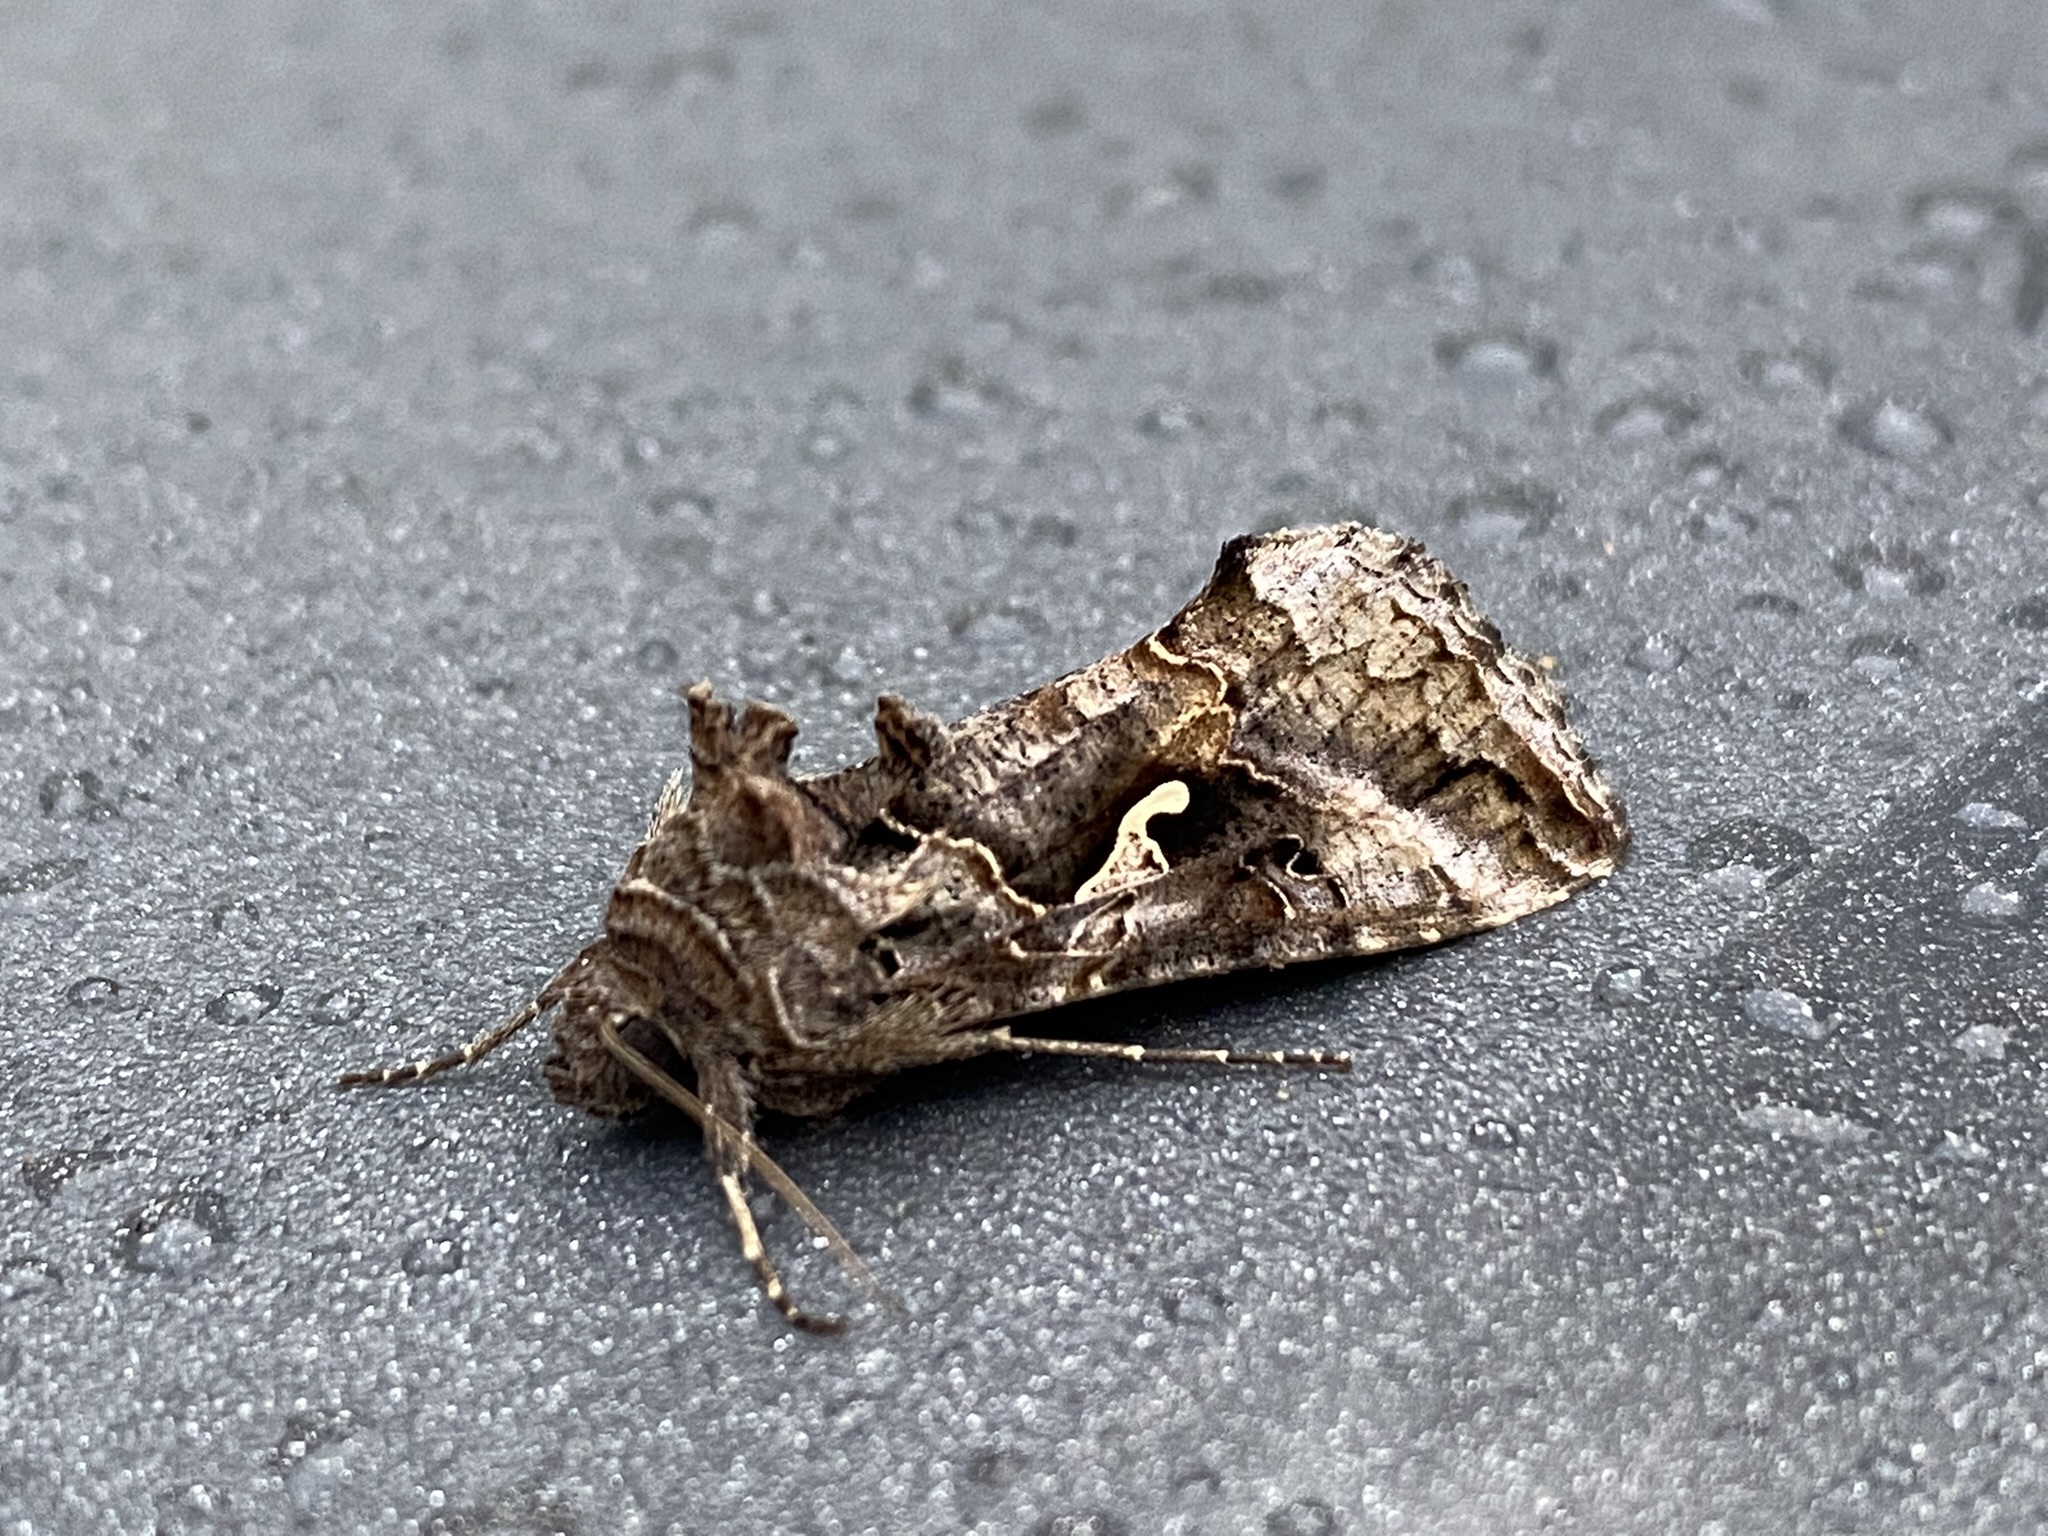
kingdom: Animalia
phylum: Arthropoda
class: Insecta
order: Lepidoptera
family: Noctuidae
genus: Autographa
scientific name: Autographa gamma
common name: Silver y
